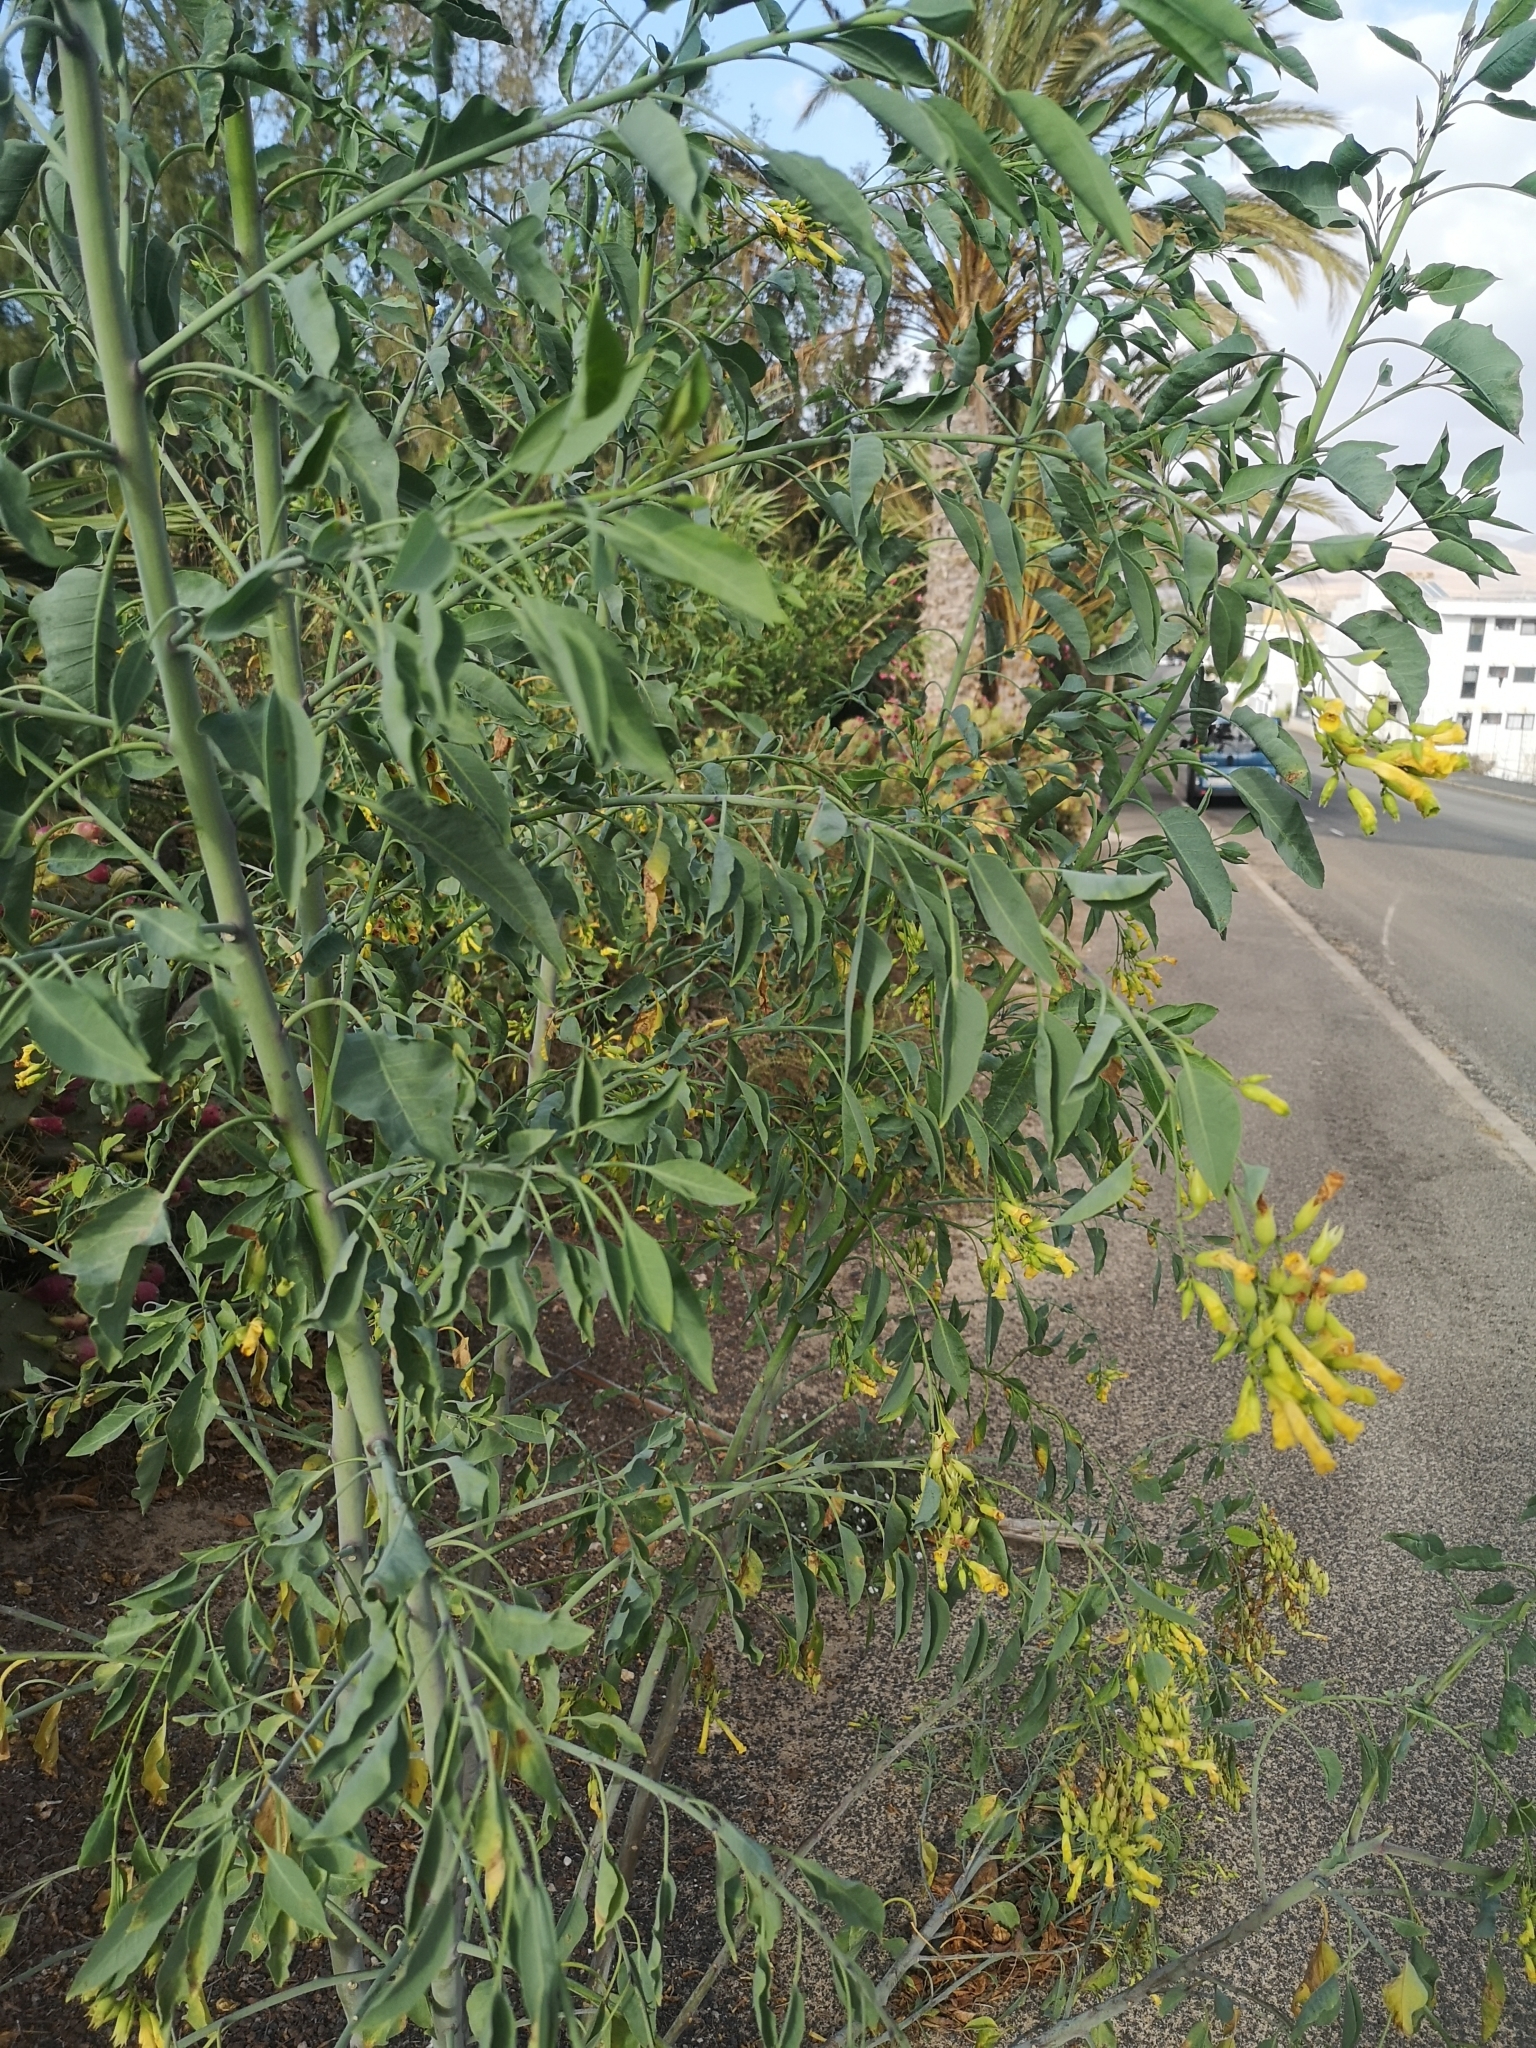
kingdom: Plantae
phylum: Tracheophyta
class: Magnoliopsida
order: Solanales
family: Solanaceae
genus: Nicotiana
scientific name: Nicotiana glauca
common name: Tree tobacco
